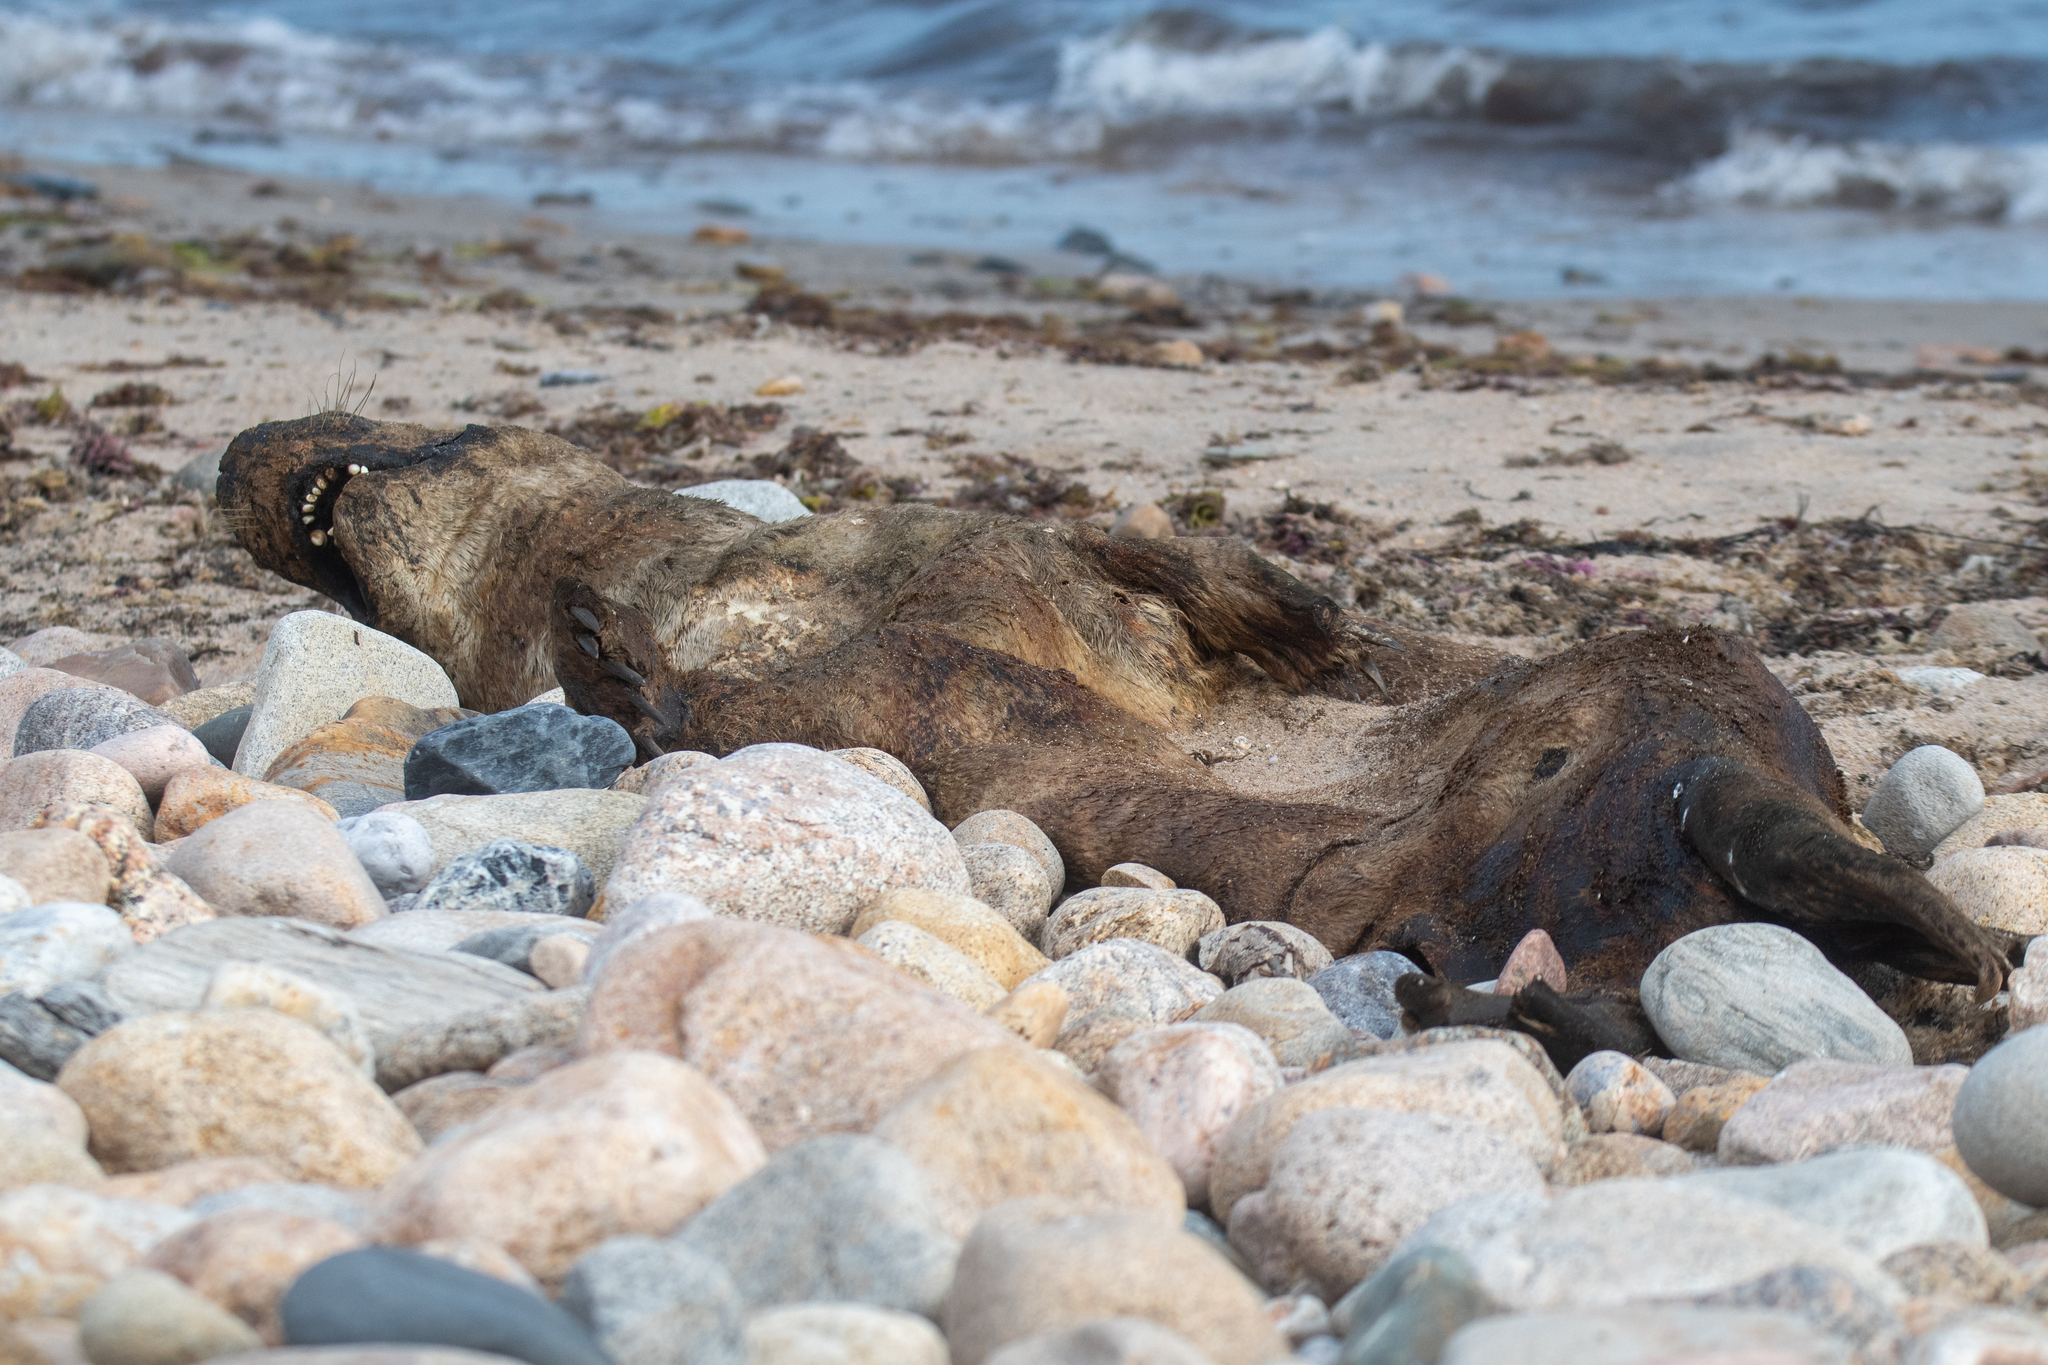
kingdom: Animalia
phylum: Chordata
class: Mammalia
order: Carnivora
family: Phocidae
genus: Halichoerus
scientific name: Halichoerus grypus
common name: Grey seal
